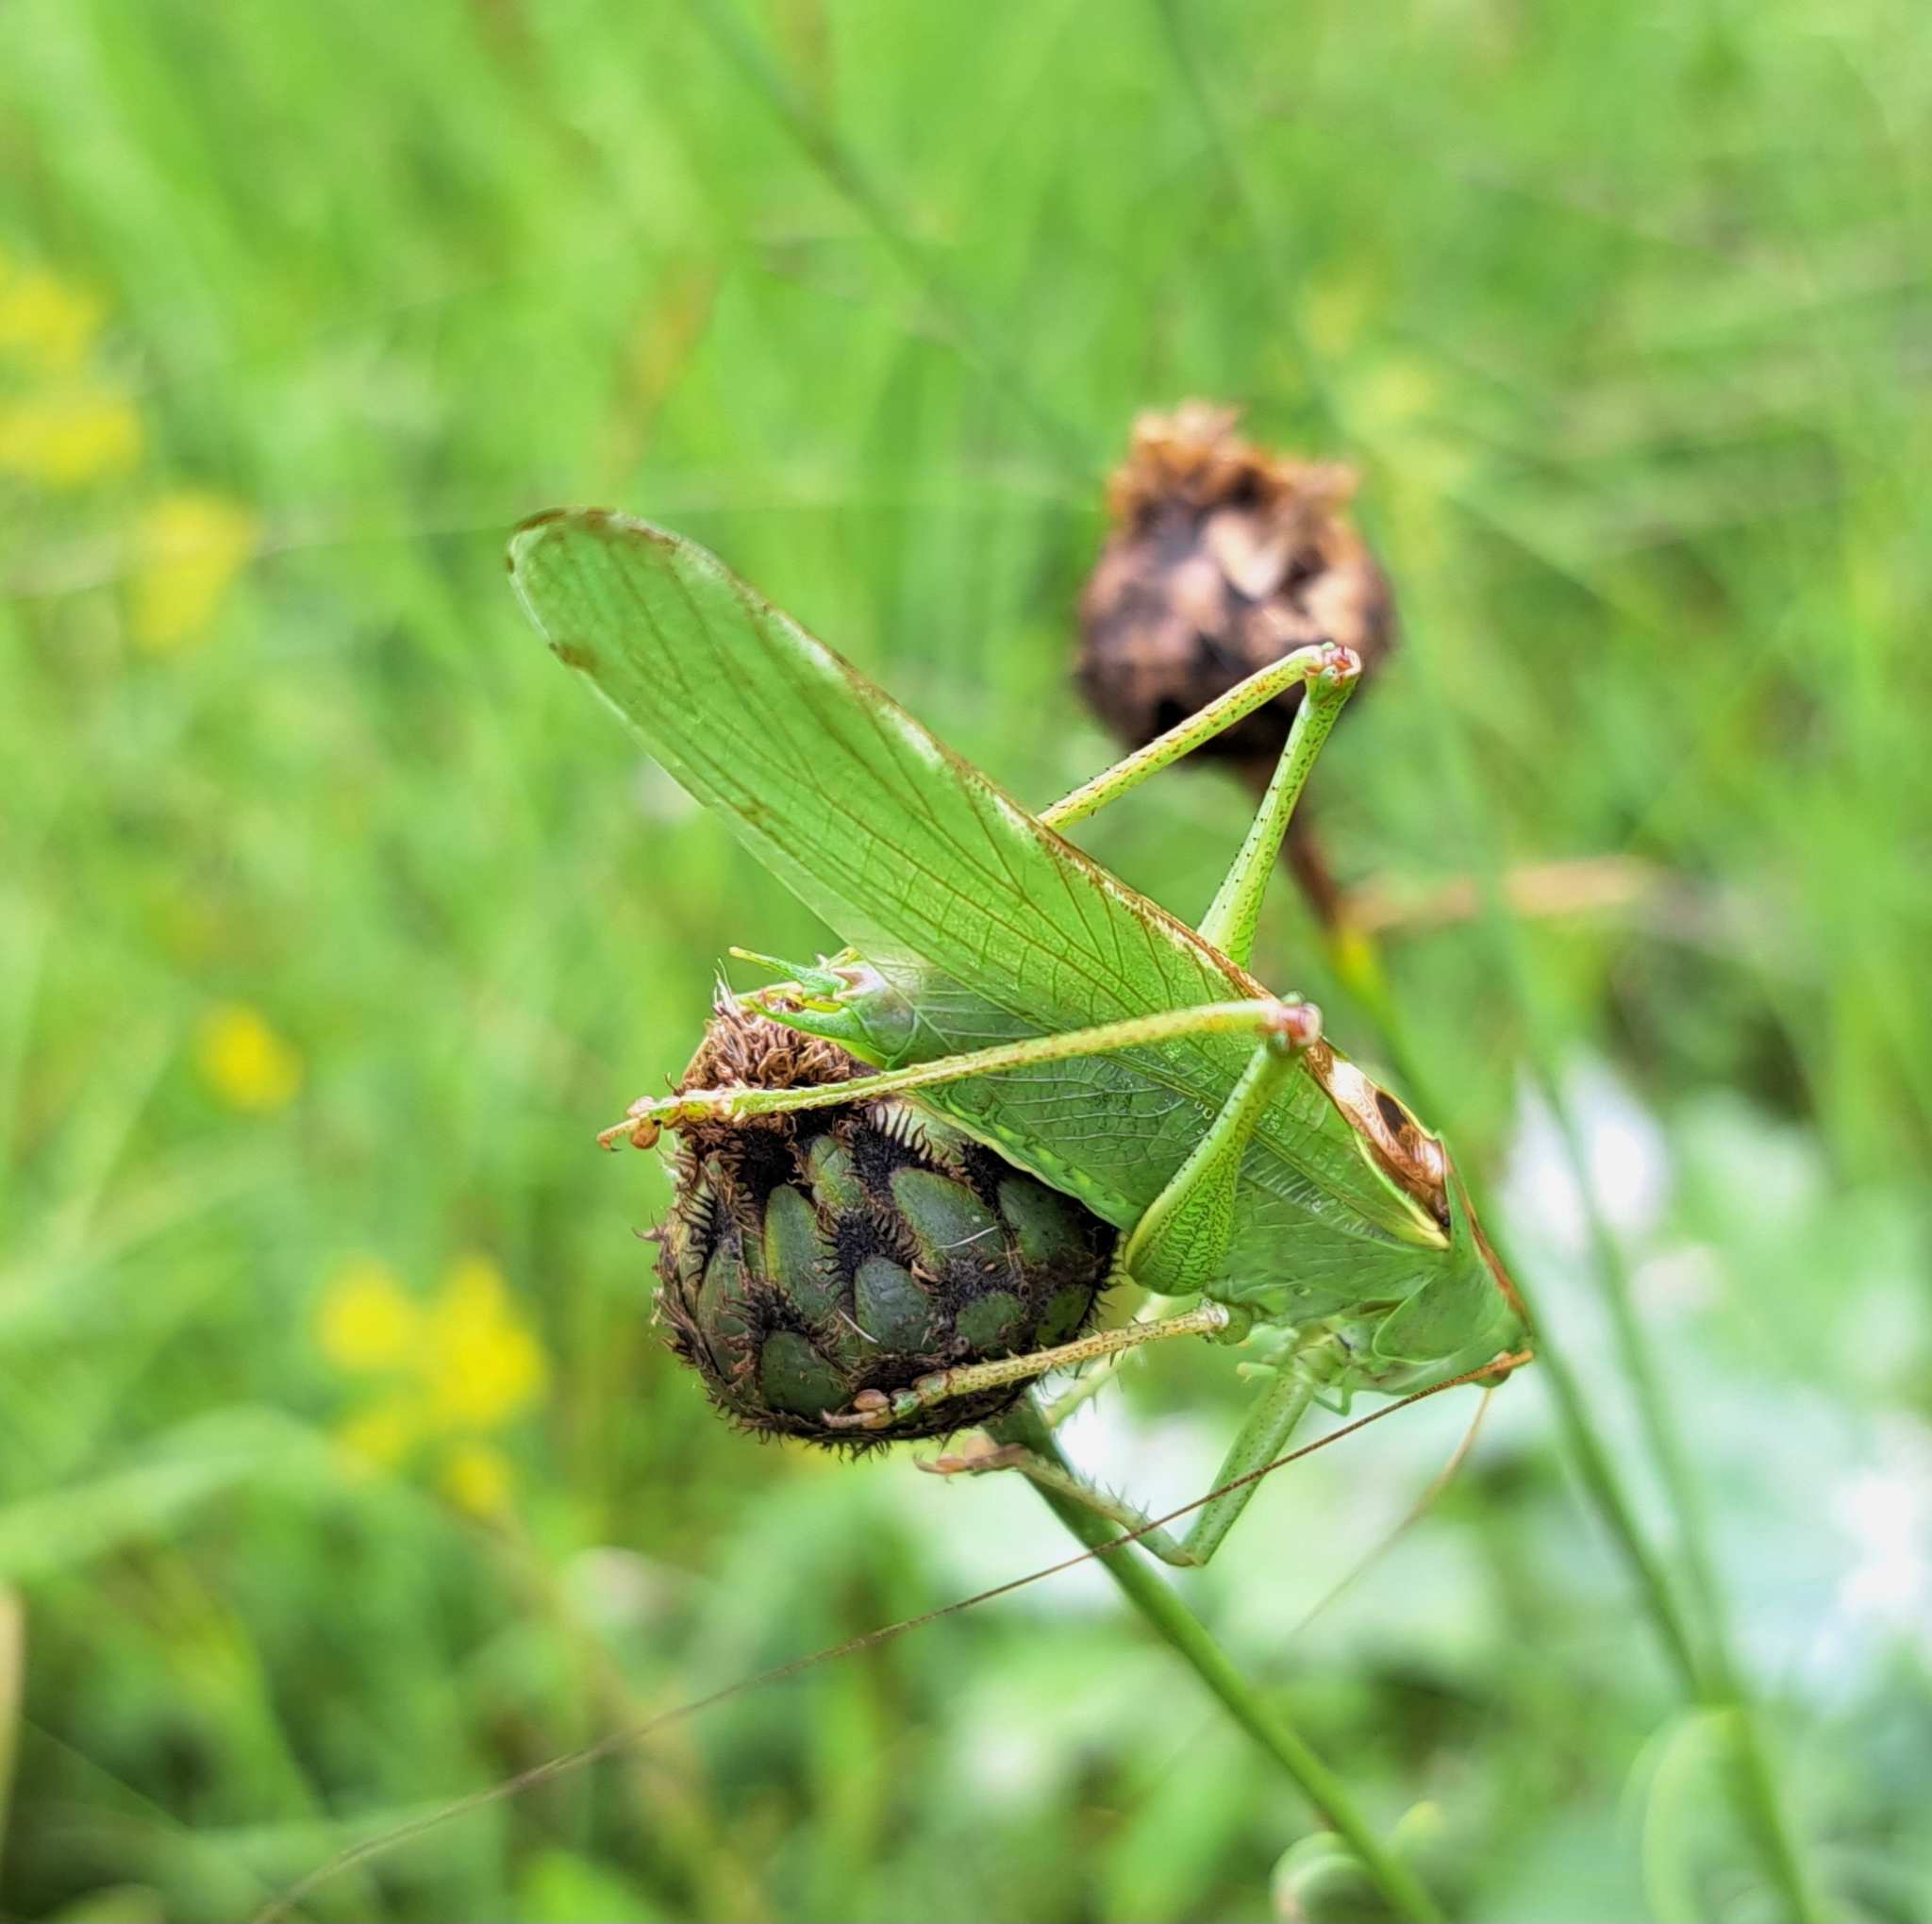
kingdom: Animalia
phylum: Arthropoda
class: Insecta
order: Orthoptera
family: Tettigoniidae
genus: Tettigonia
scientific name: Tettigonia viridissima
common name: Great green bush-cricket
